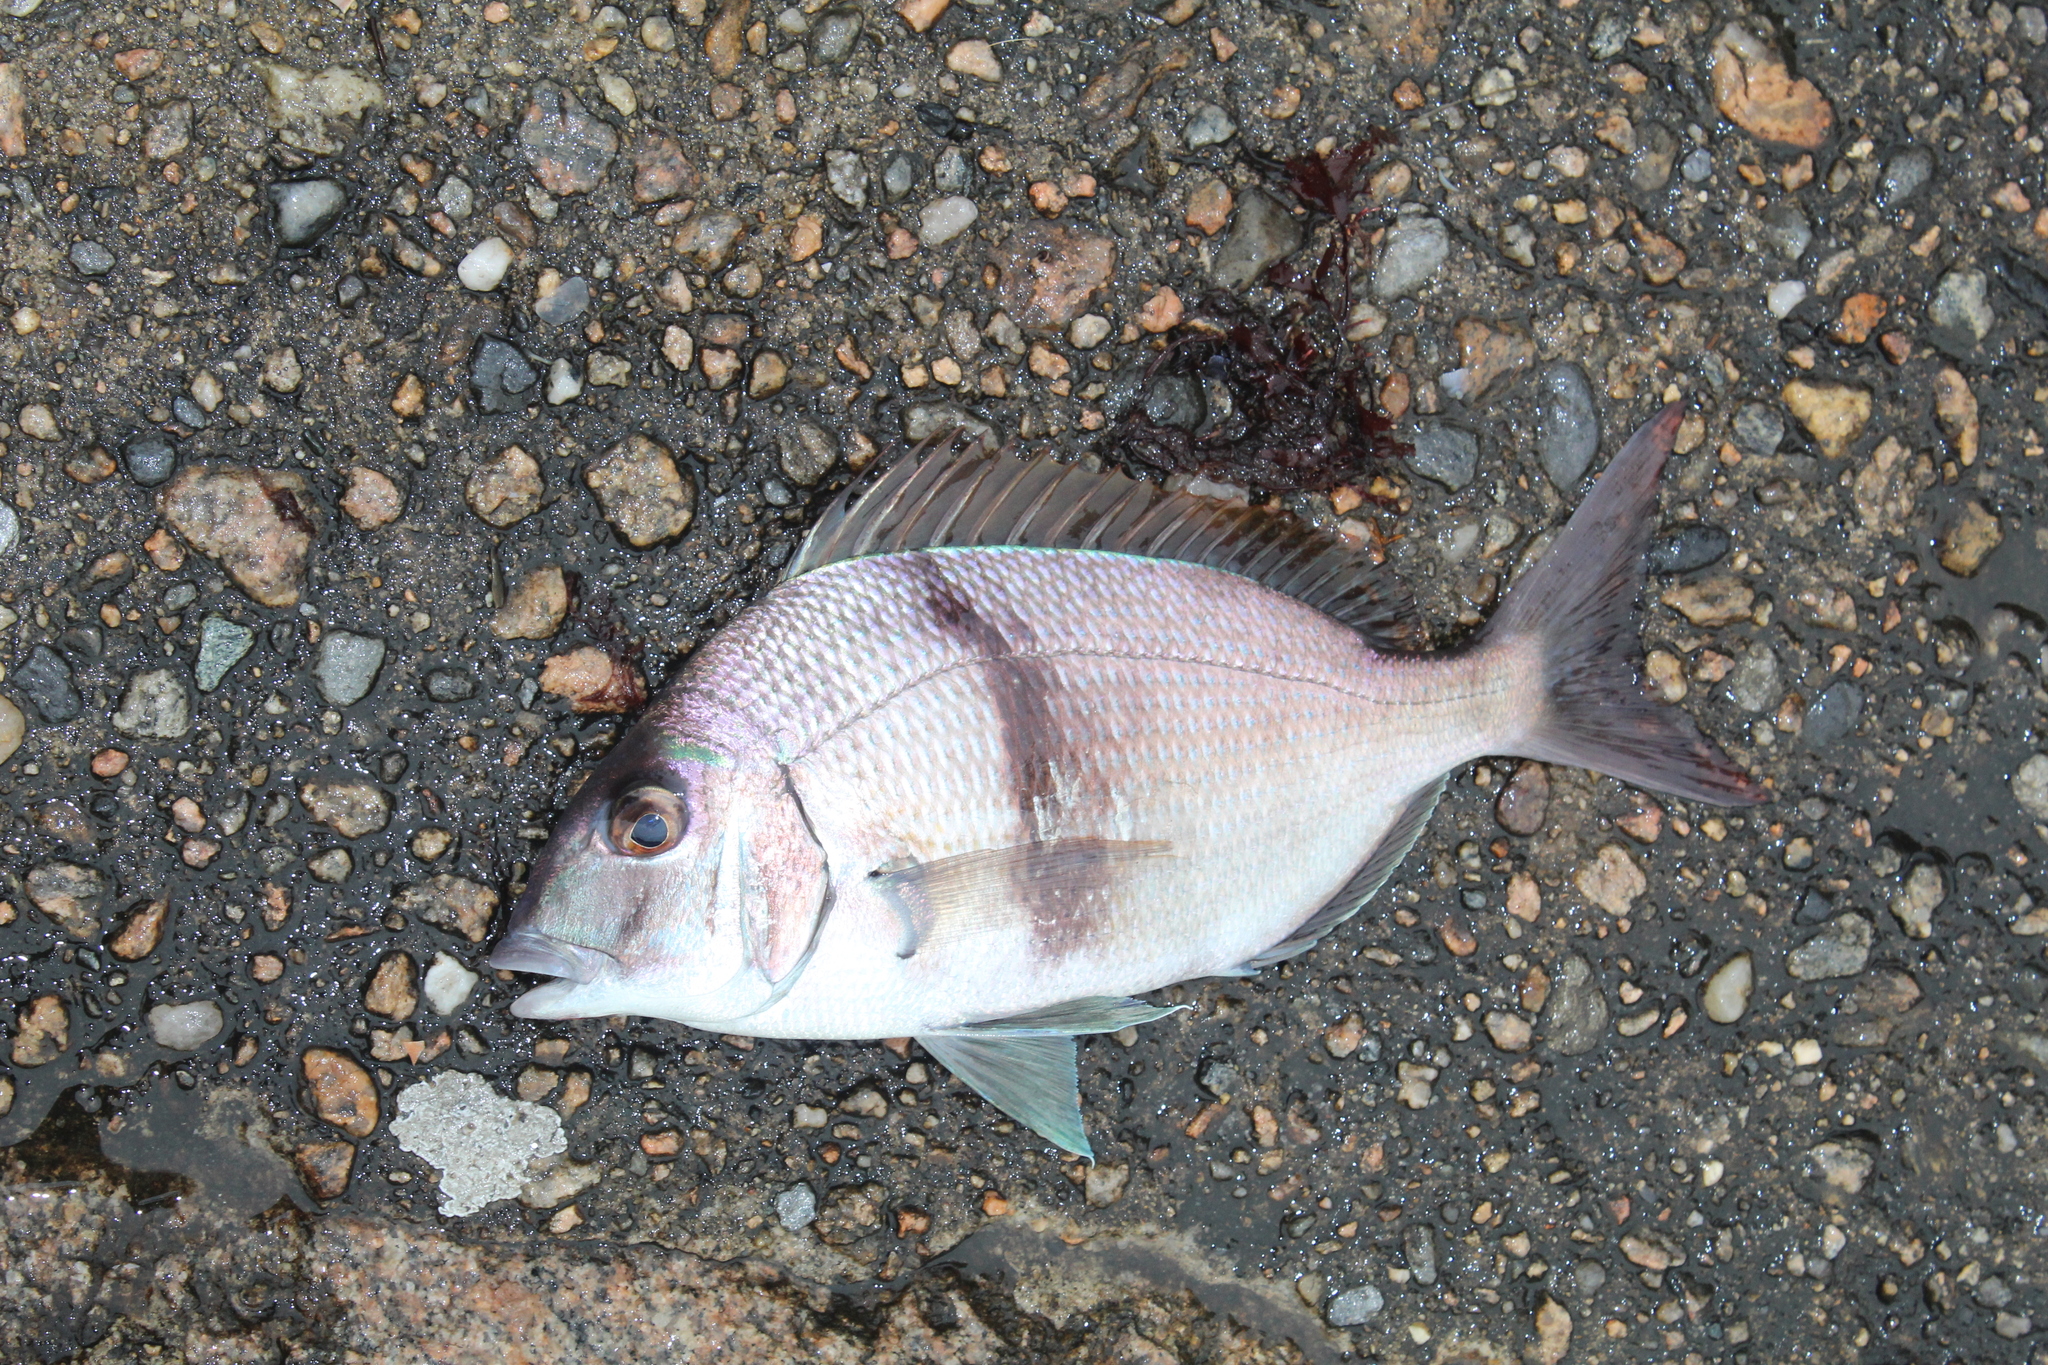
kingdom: Animalia
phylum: Chordata
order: Perciformes
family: Sparidae
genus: Stenotomus
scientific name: Stenotomus chrysops
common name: Scup
